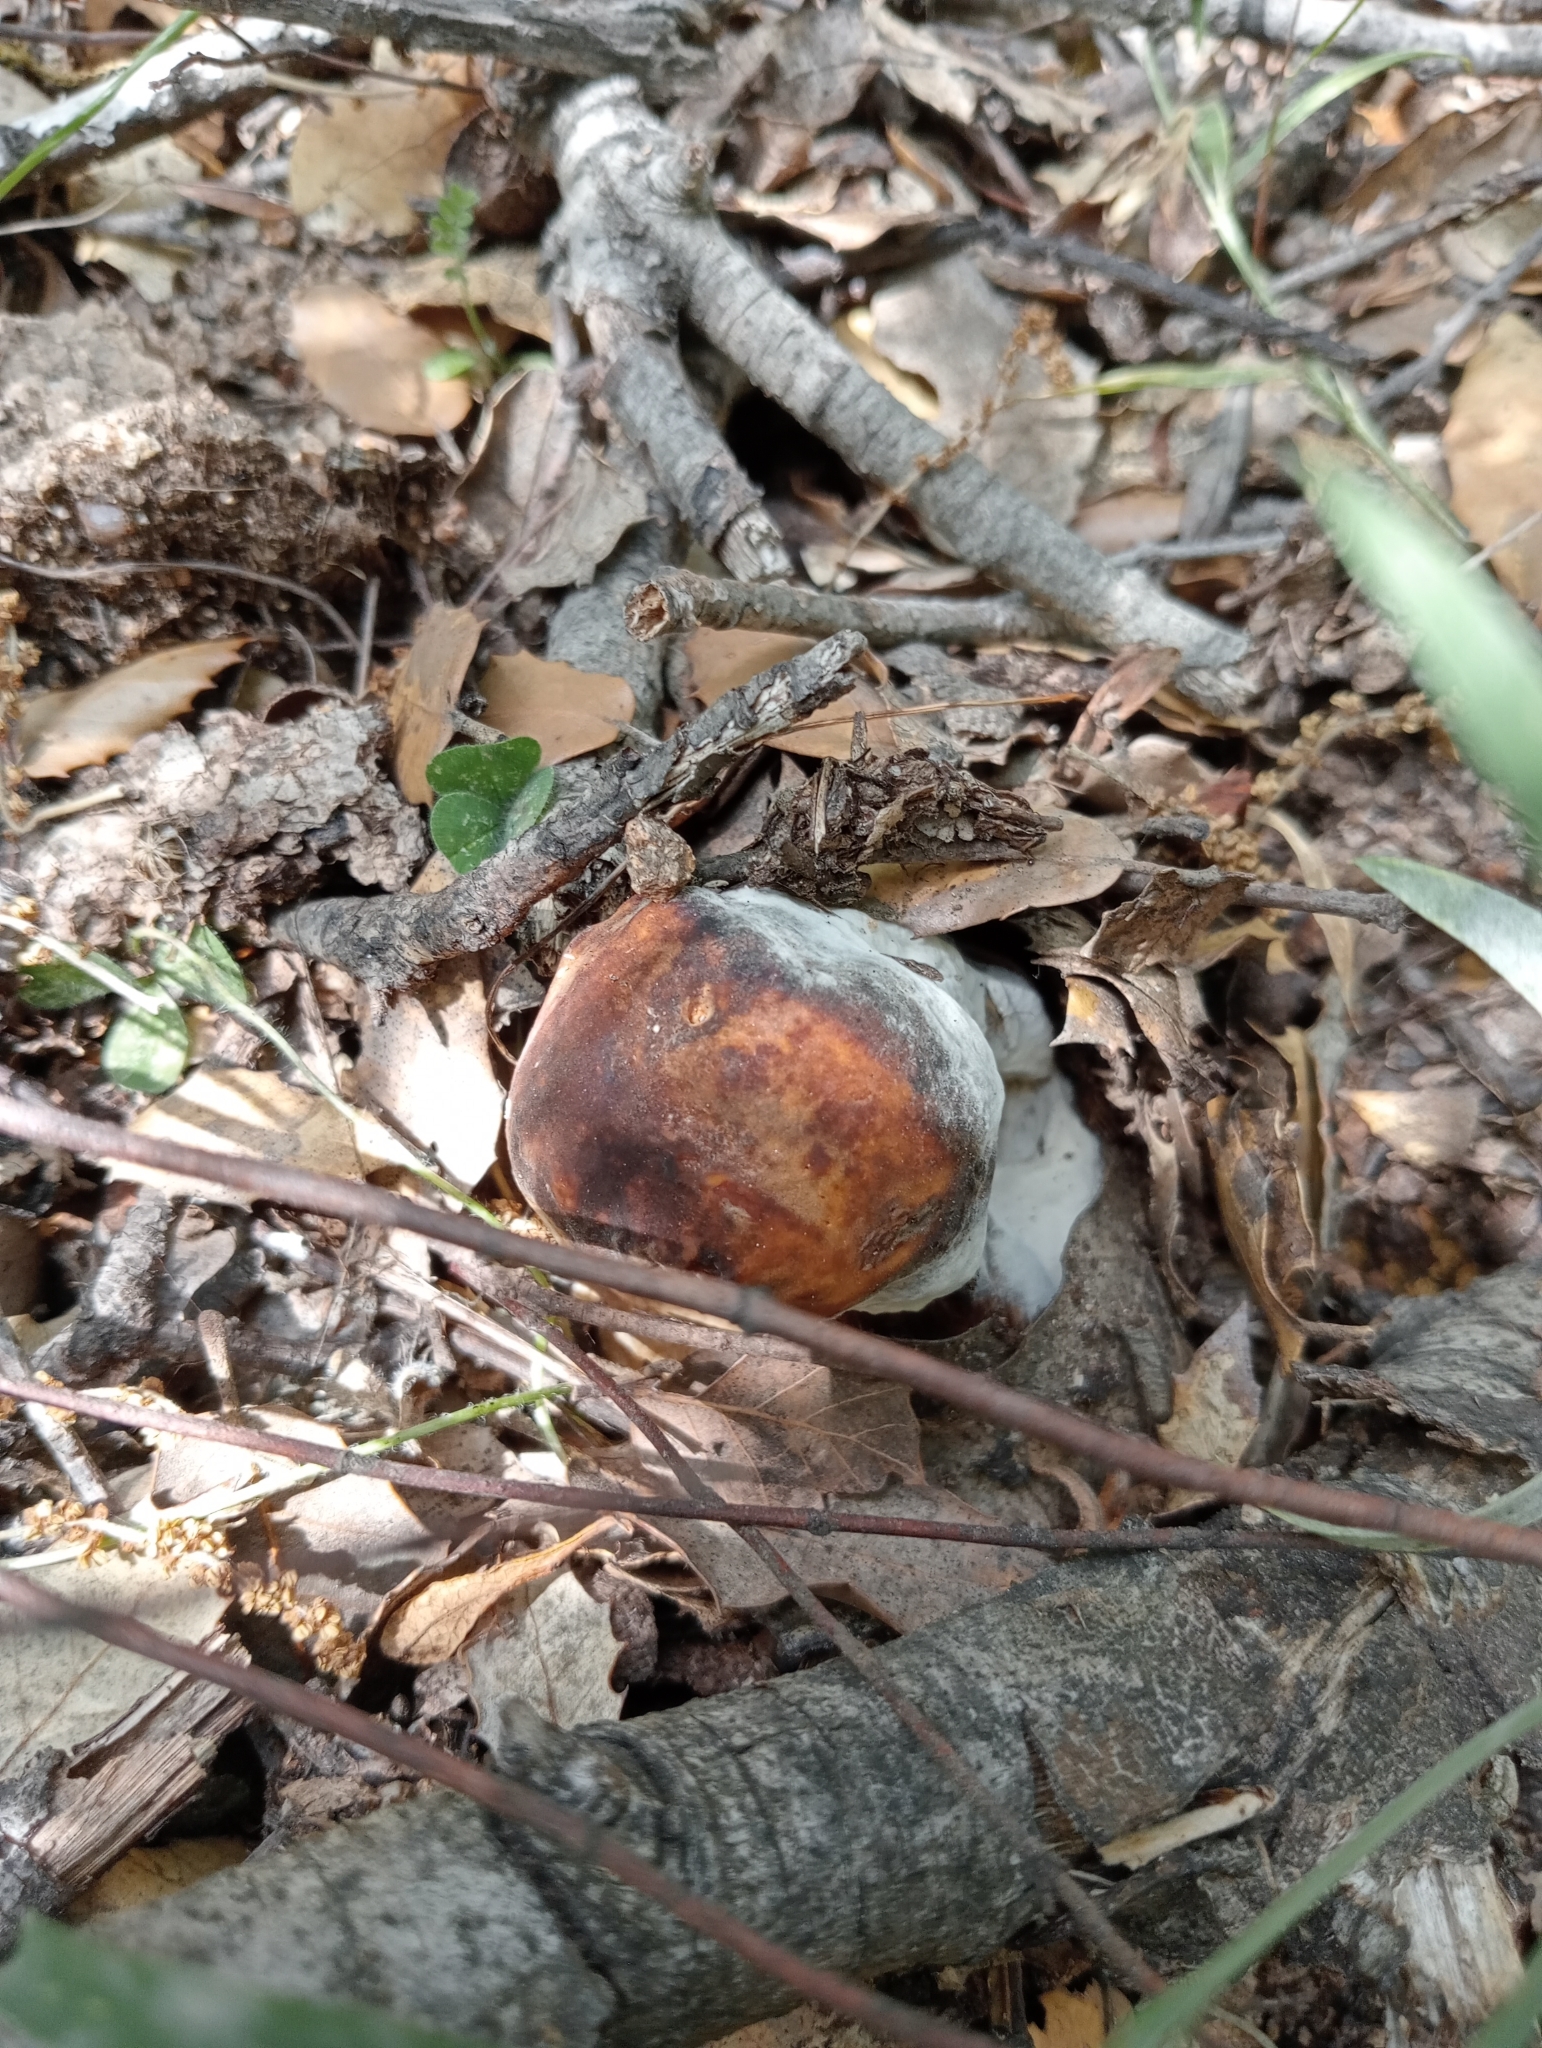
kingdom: Fungi
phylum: Ascomycota
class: Sordariomycetes
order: Hypocreales
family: Hypocreaceae
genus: Hypomyces
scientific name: Hypomyces chrysospermus
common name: Bolete mould
